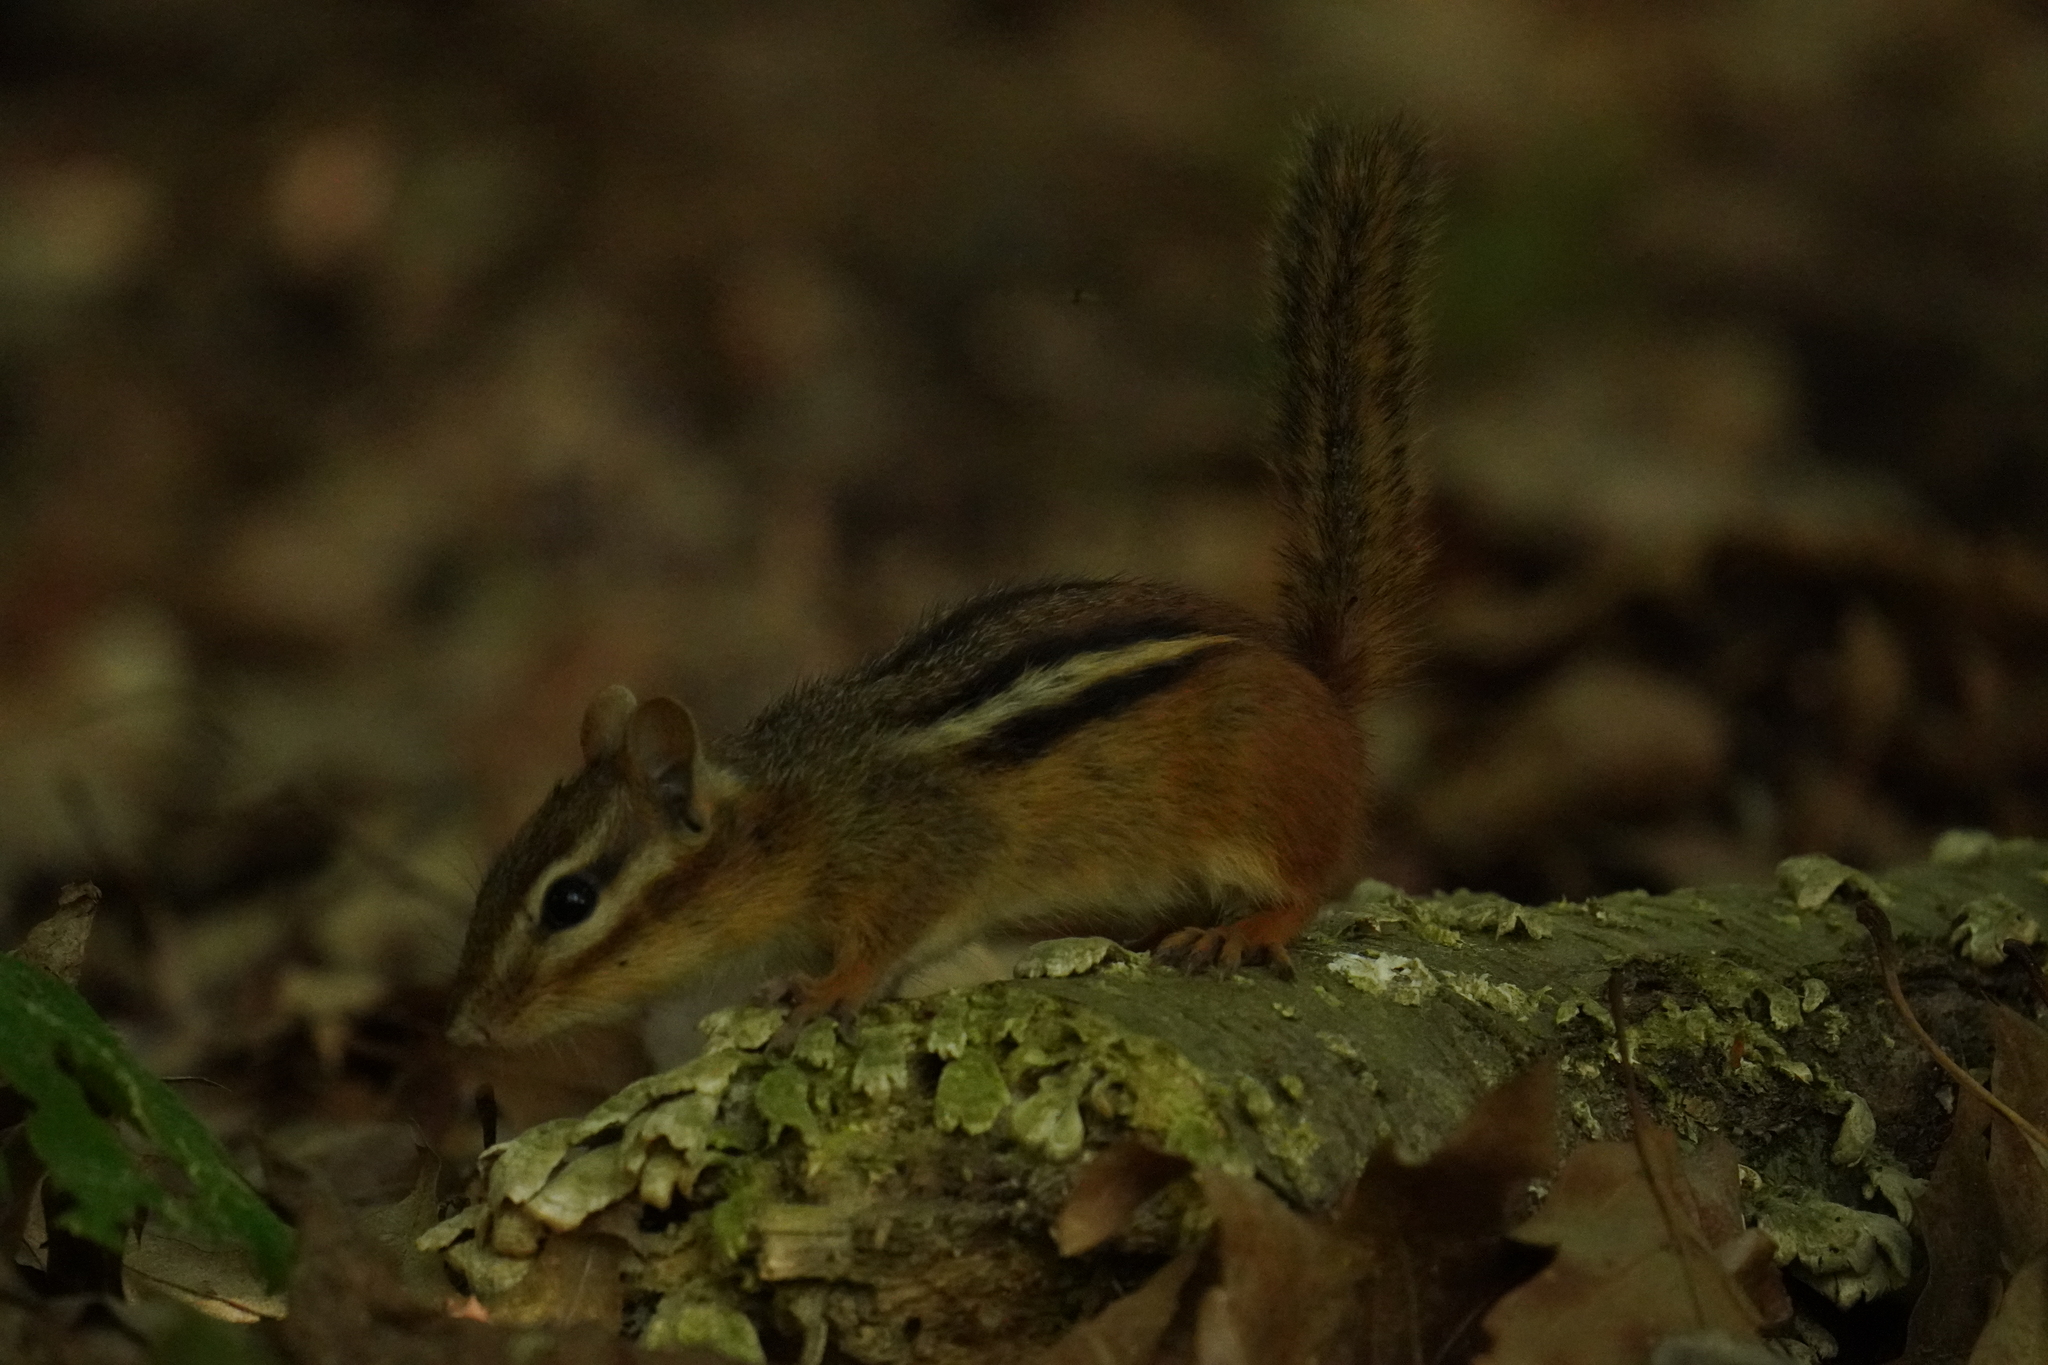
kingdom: Animalia
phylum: Chordata
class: Mammalia
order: Rodentia
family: Sciuridae
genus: Tamias
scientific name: Tamias striatus
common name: Eastern chipmunk
